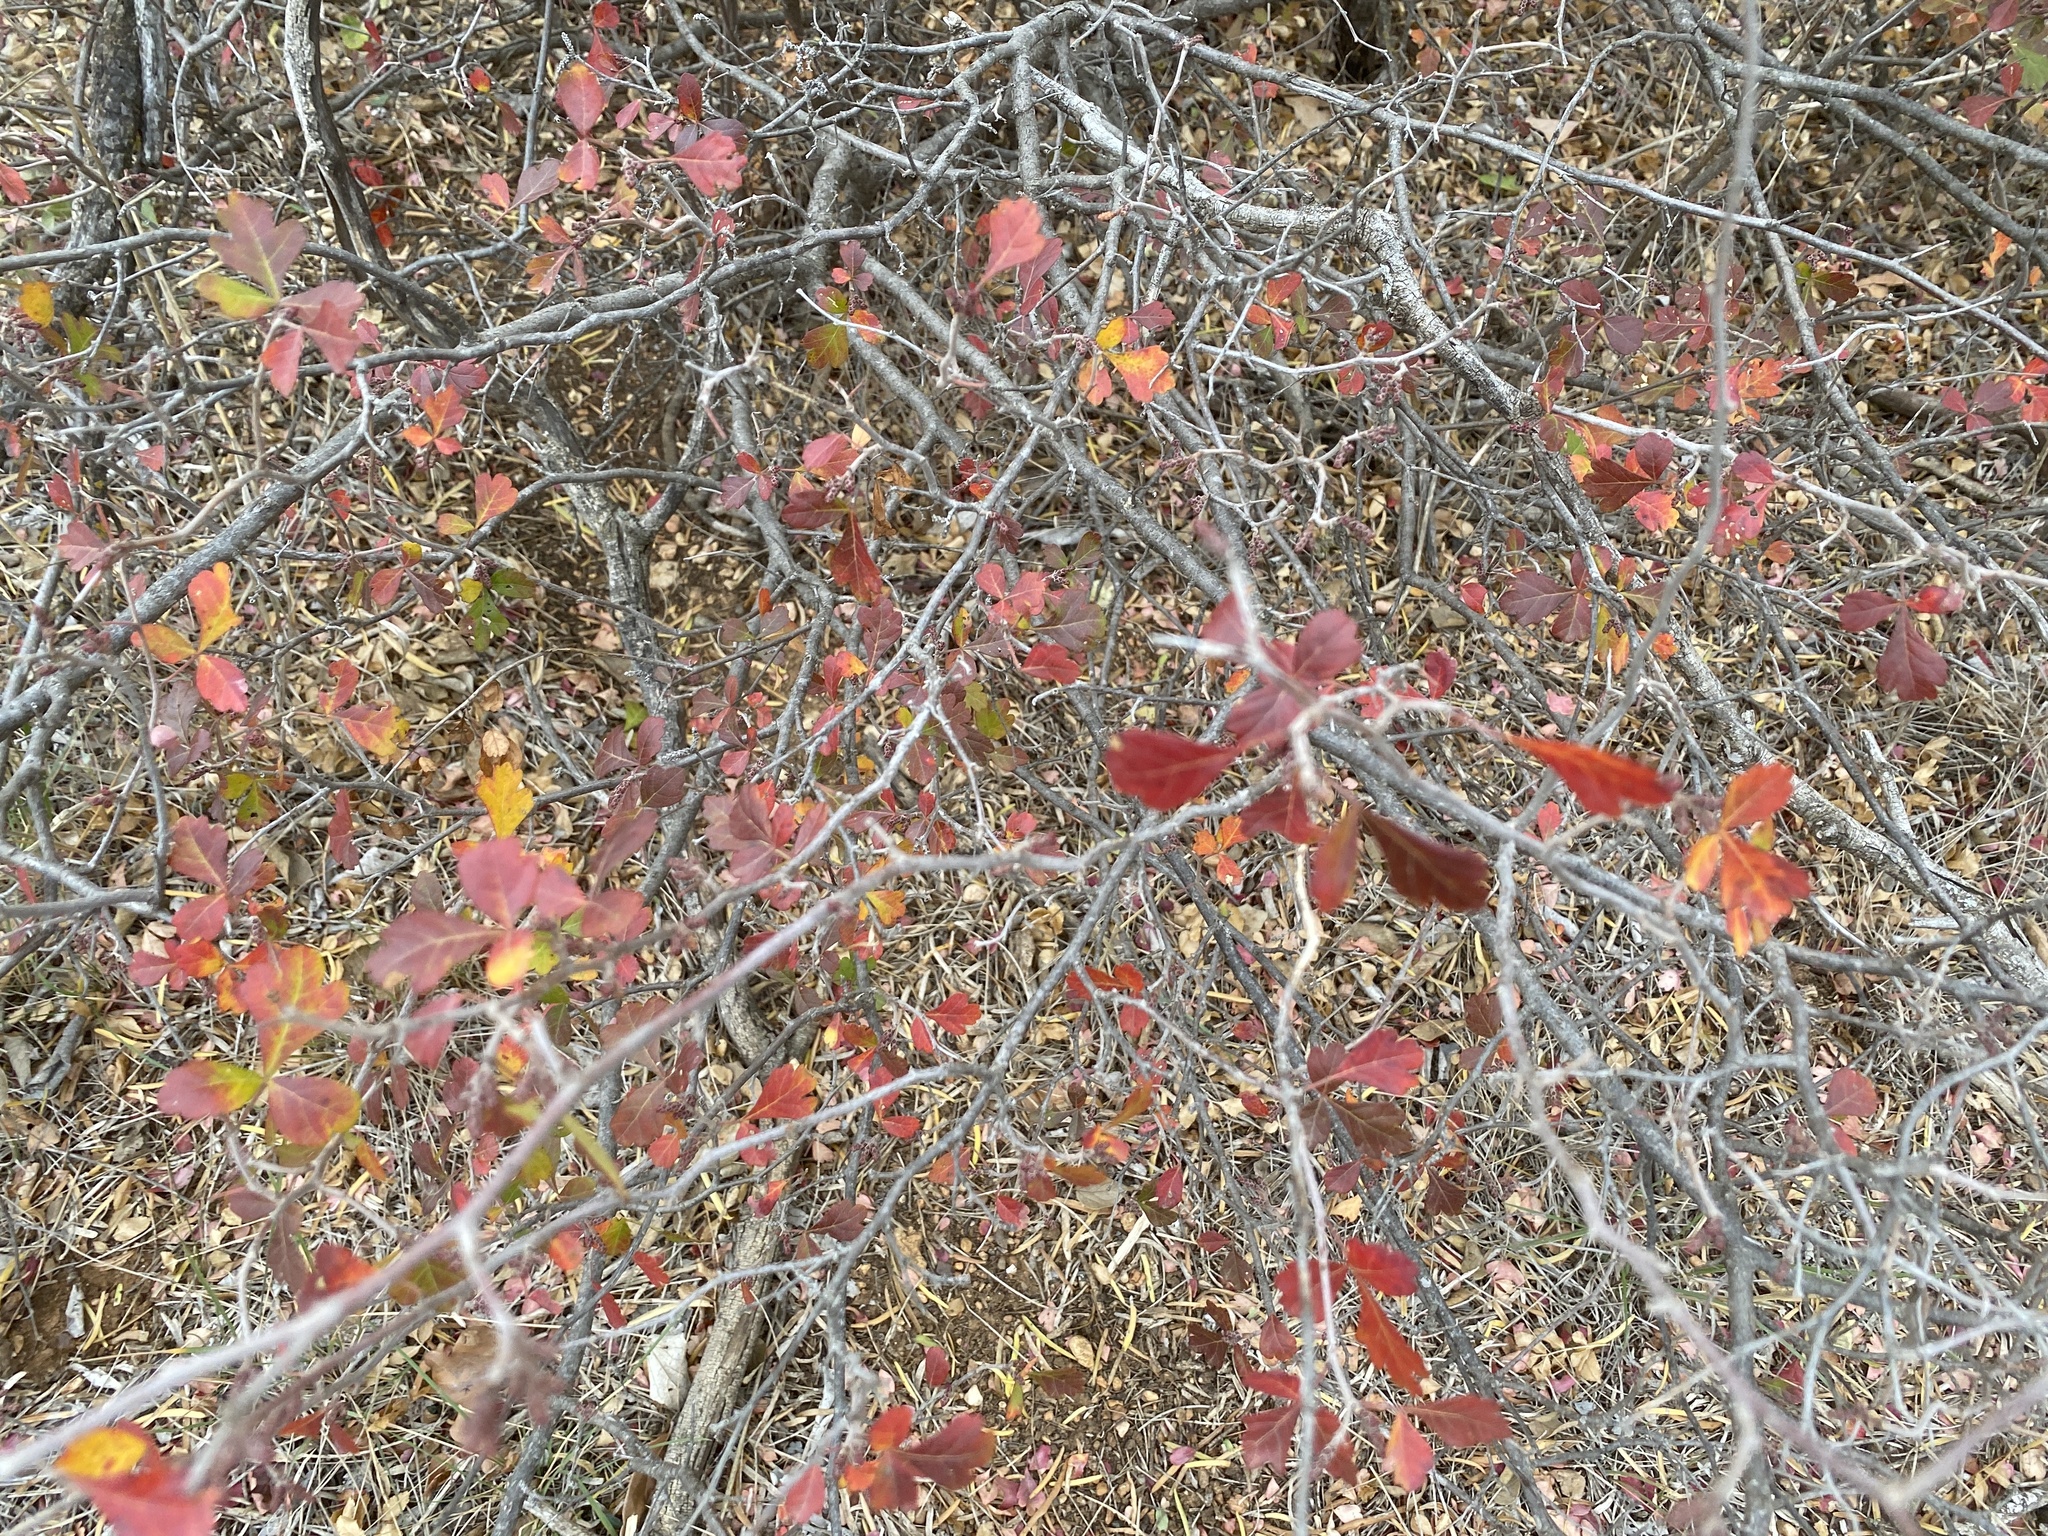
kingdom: Plantae
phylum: Tracheophyta
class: Magnoliopsida
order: Sapindales
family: Anacardiaceae
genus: Rhus
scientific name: Rhus aromatica
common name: Aromatic sumac
